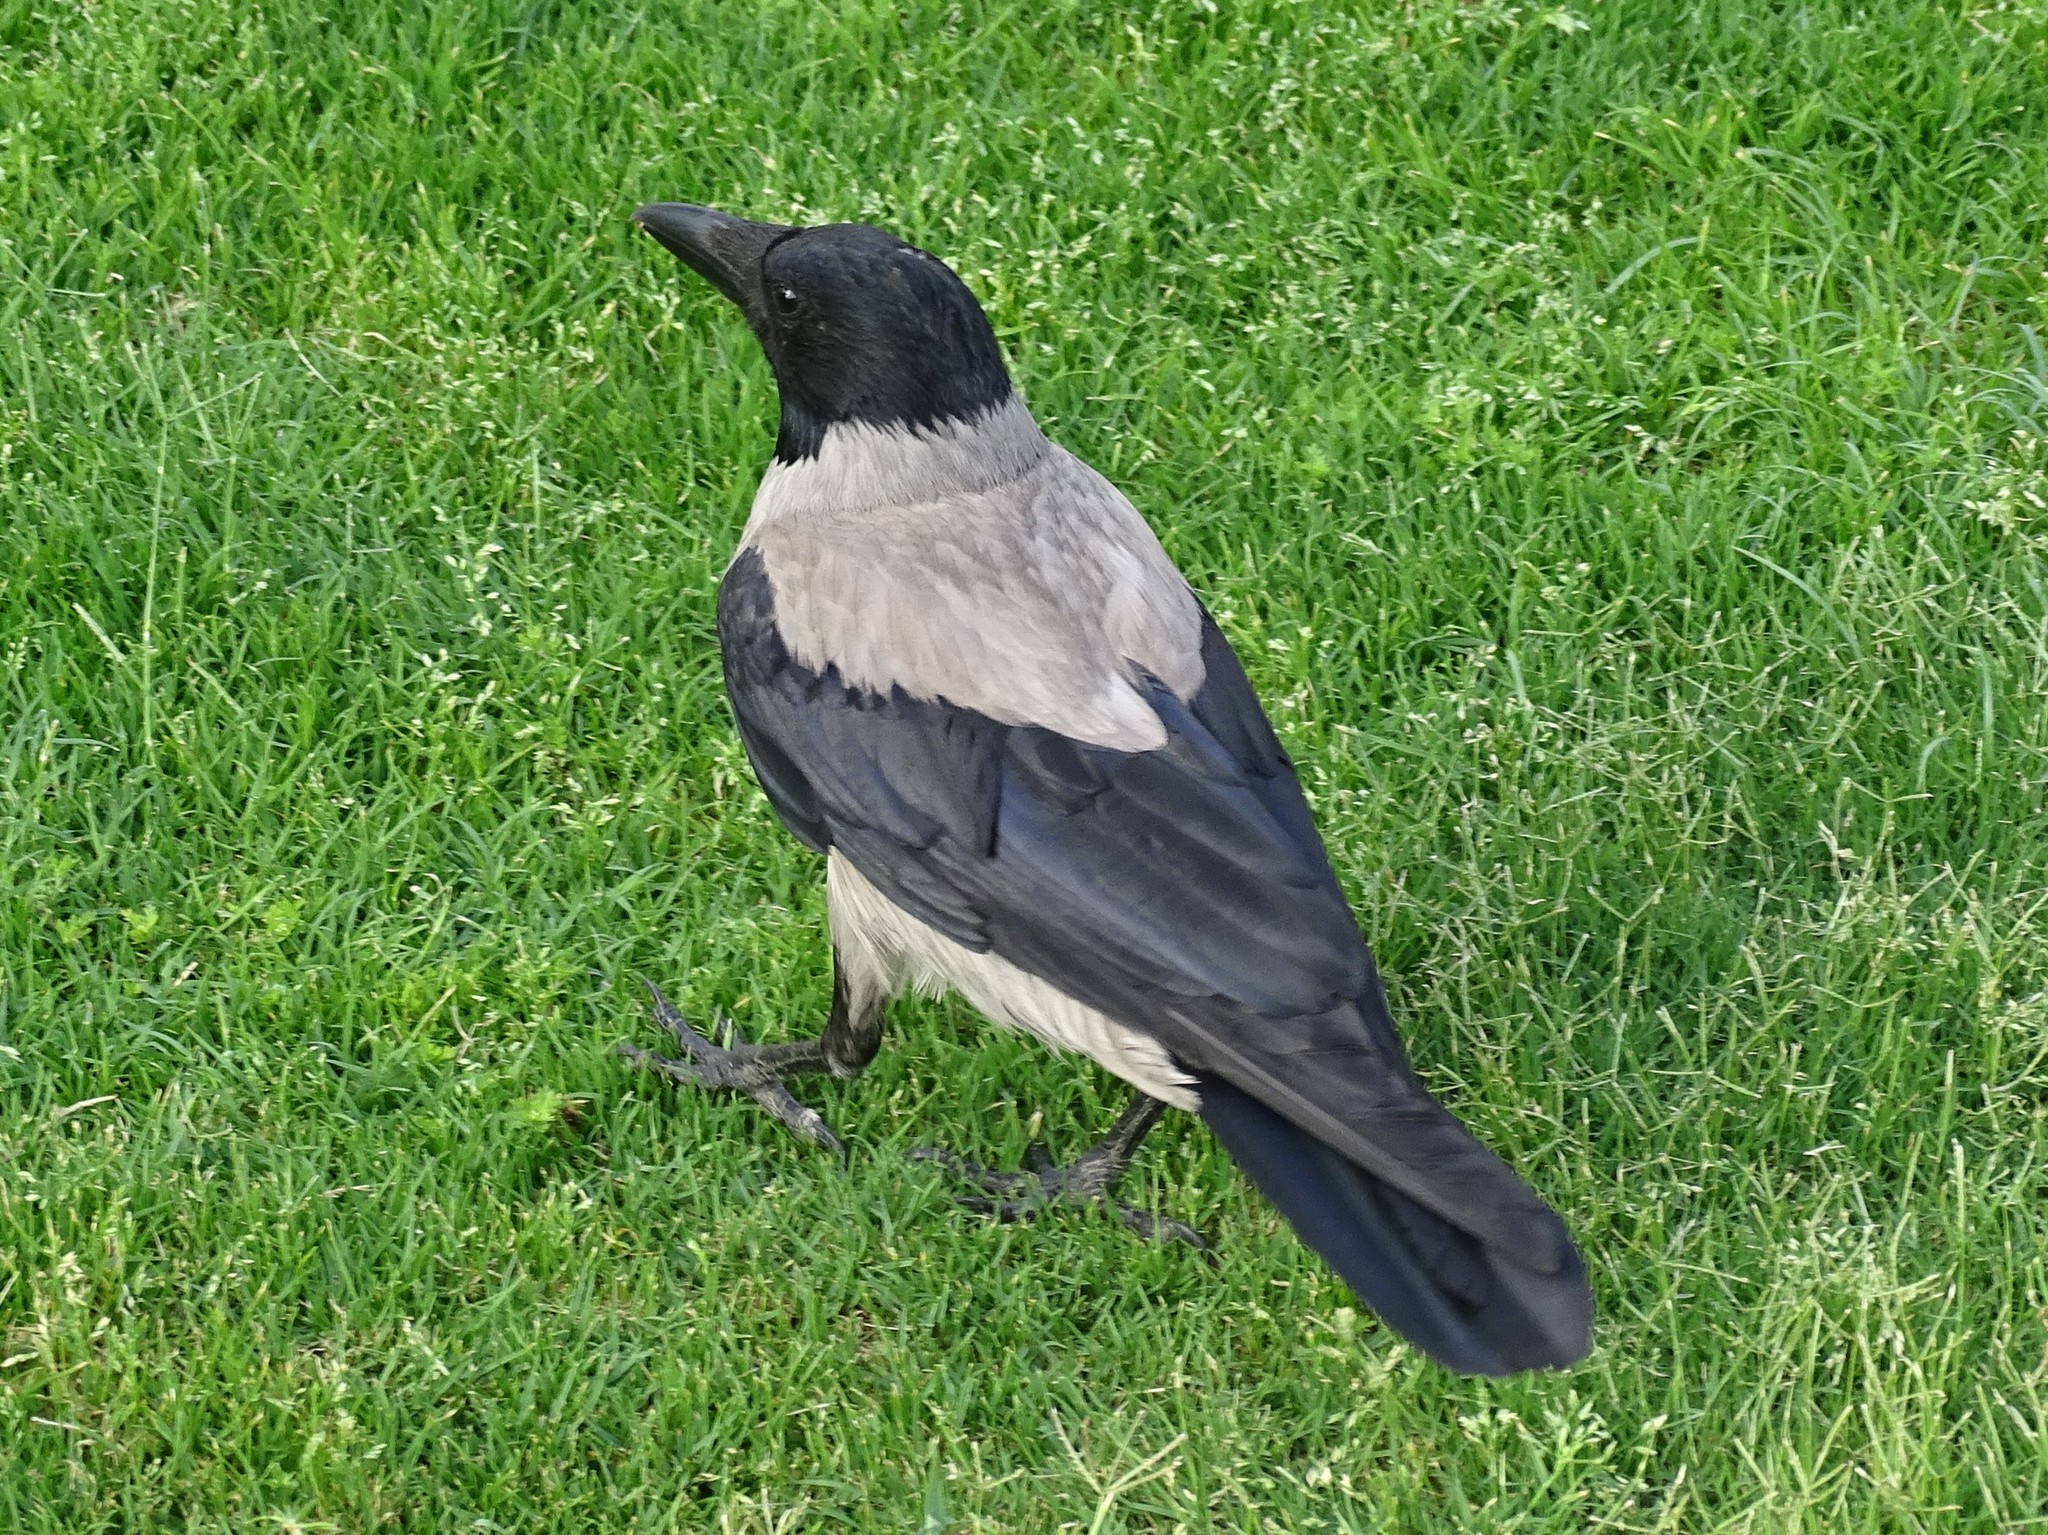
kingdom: Animalia
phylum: Chordata
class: Aves
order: Passeriformes
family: Corvidae
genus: Corvus
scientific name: Corvus cornix
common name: Hooded crow
